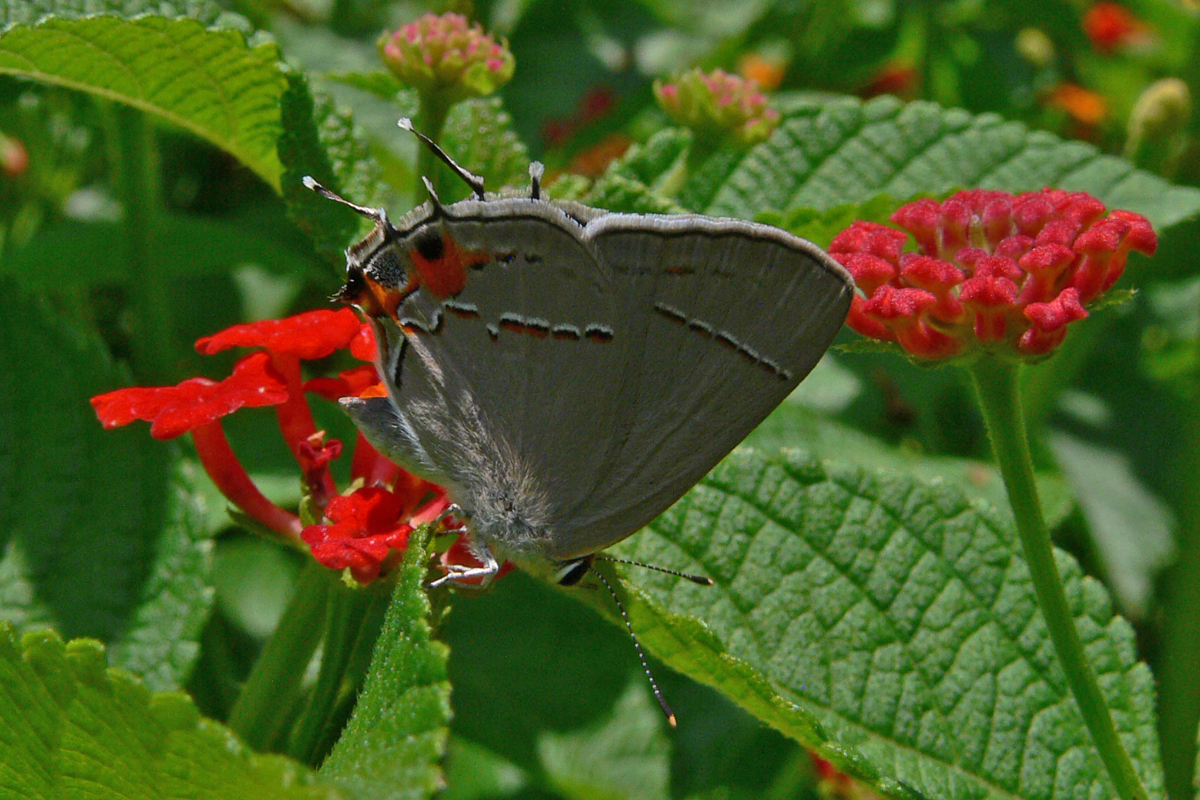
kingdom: Animalia
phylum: Arthropoda
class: Insecta
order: Lepidoptera
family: Lycaenidae
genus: Strymon
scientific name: Strymon melinus
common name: Gray hairstreak
